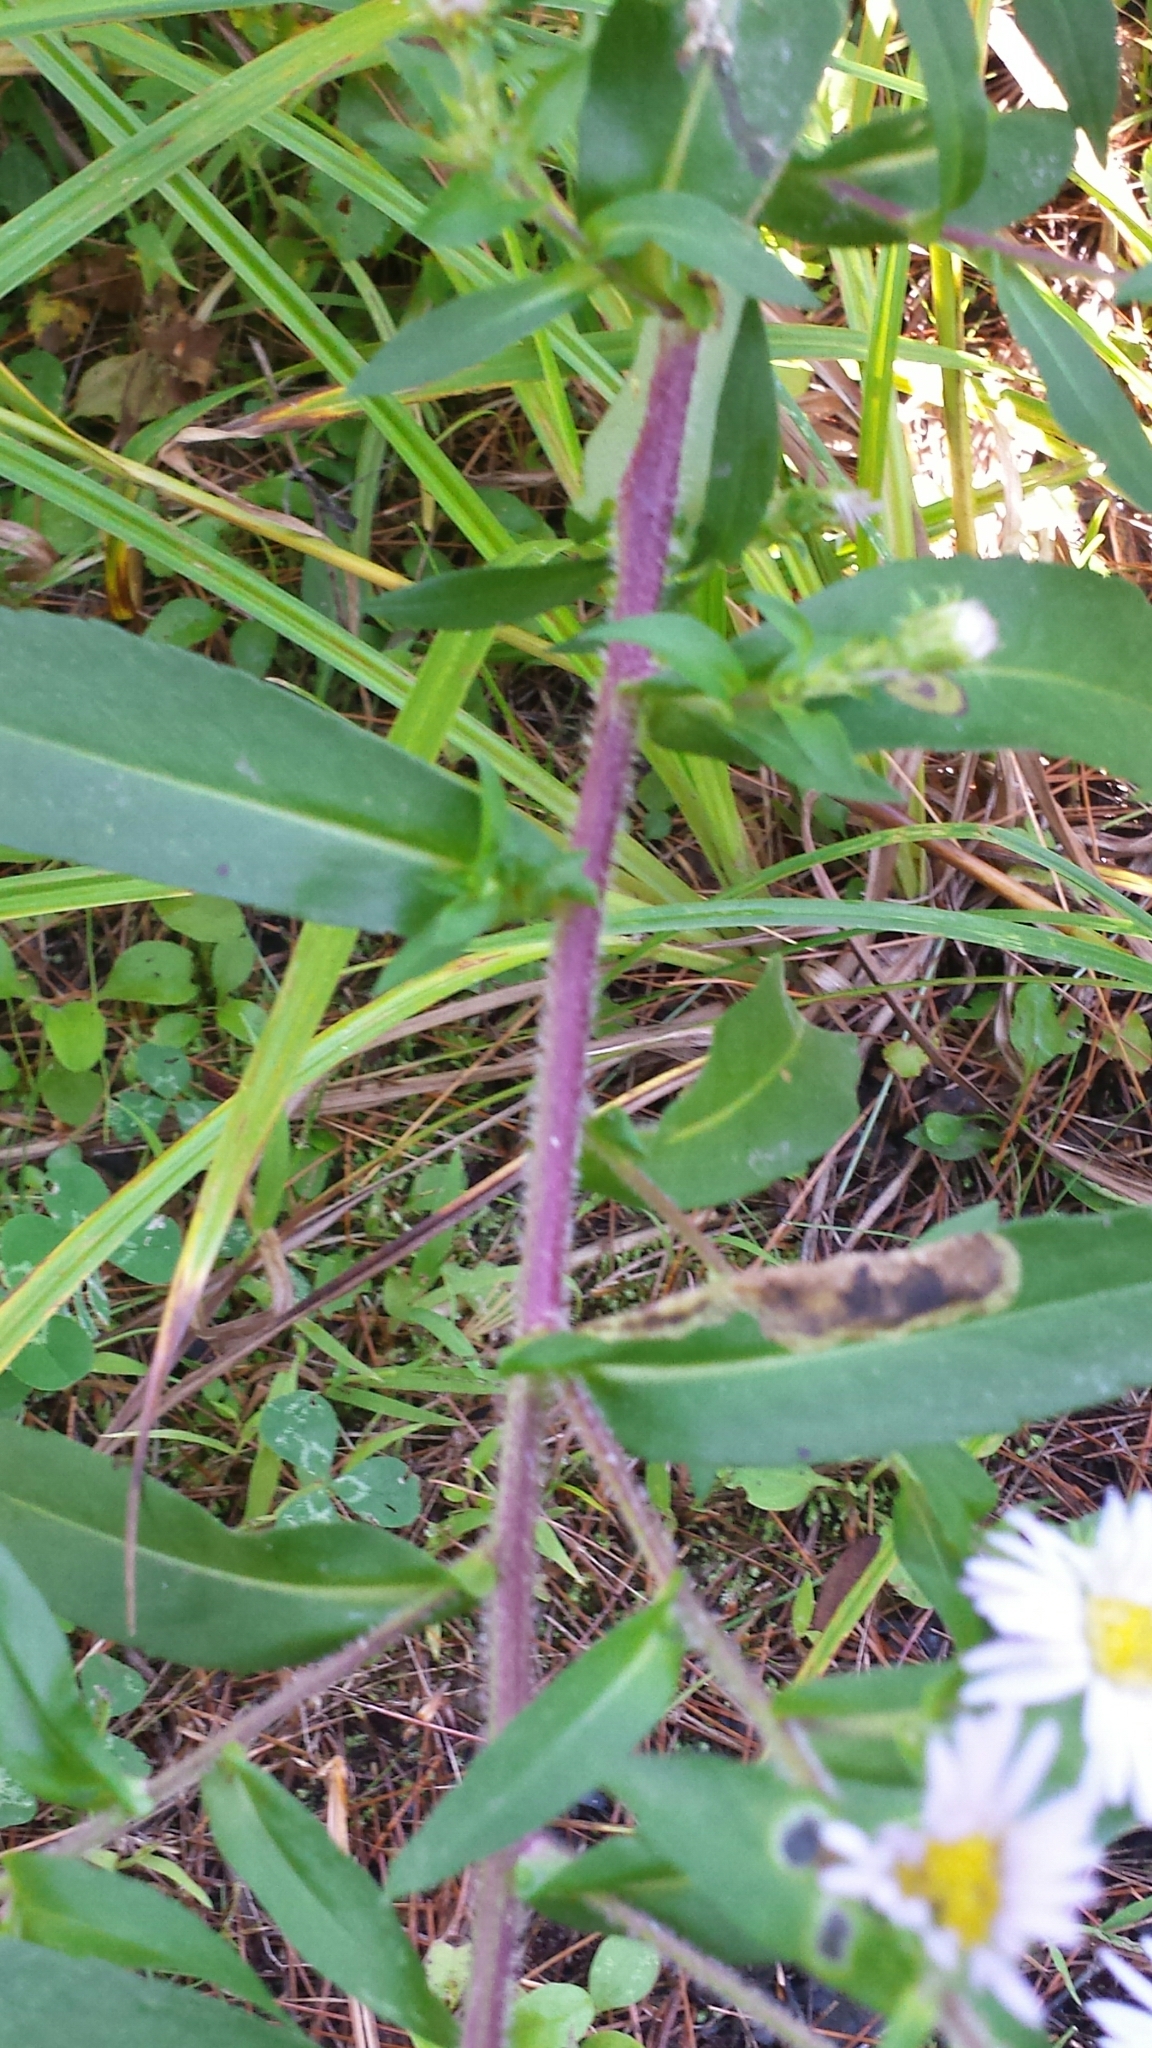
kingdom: Plantae
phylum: Tracheophyta
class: Magnoliopsida
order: Asterales
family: Asteraceae
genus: Symphyotrichum
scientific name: Symphyotrichum puniceum
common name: Bog aster
